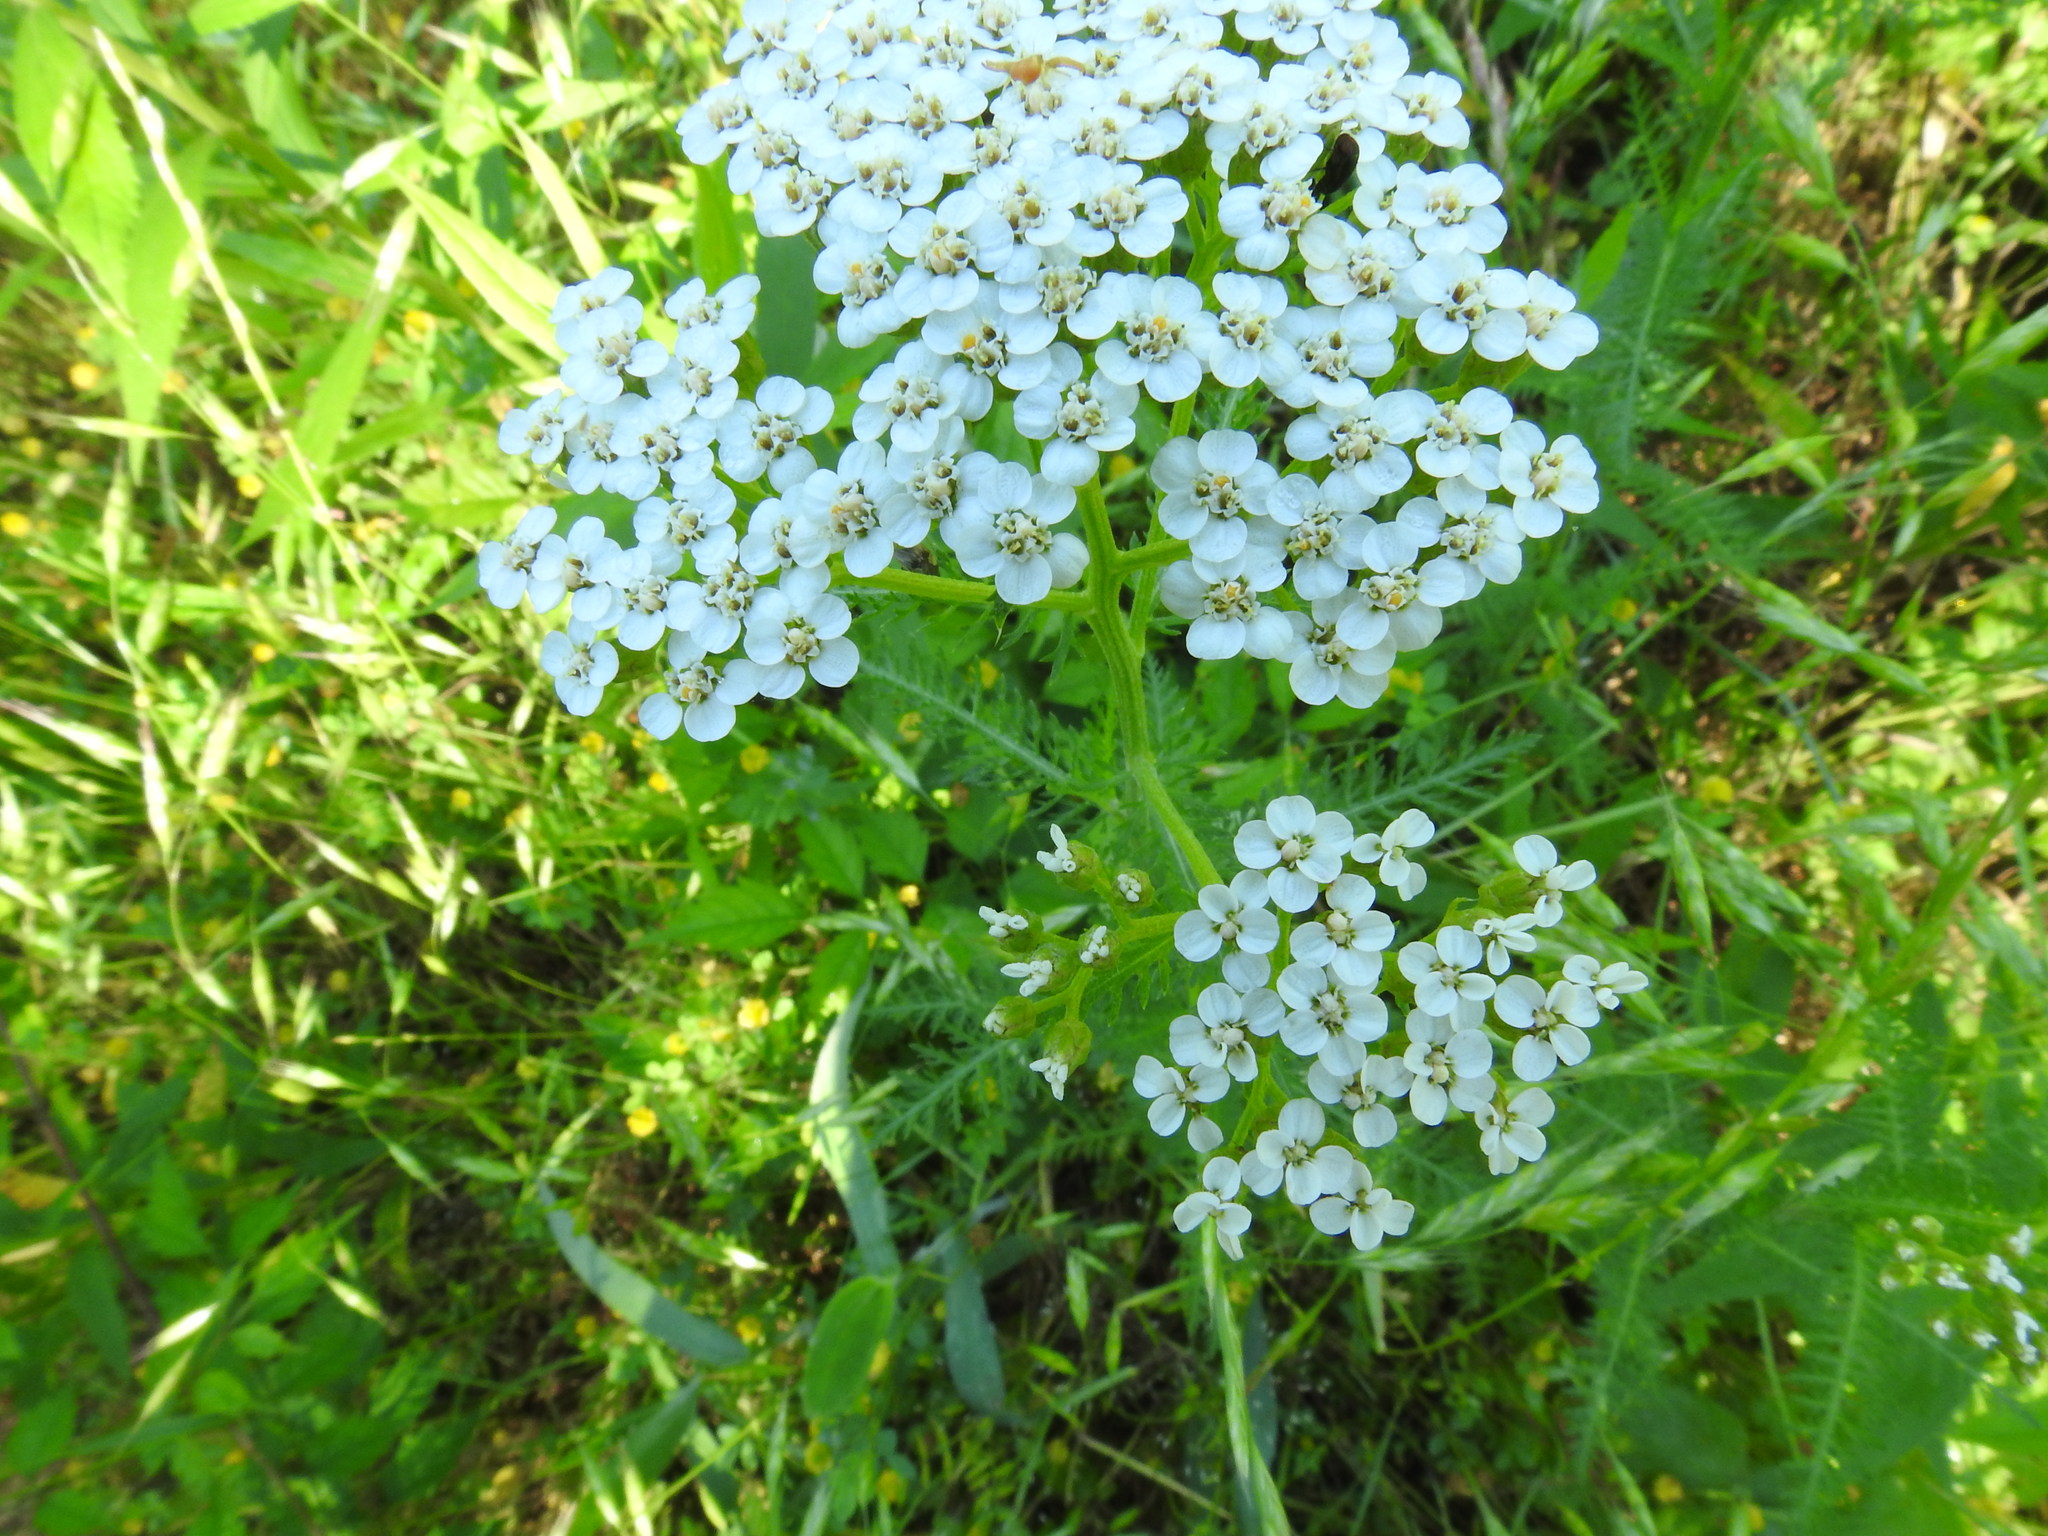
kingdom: Plantae
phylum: Tracheophyta
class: Magnoliopsida
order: Asterales
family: Asteraceae
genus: Achillea
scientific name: Achillea millefolium
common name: Yarrow
